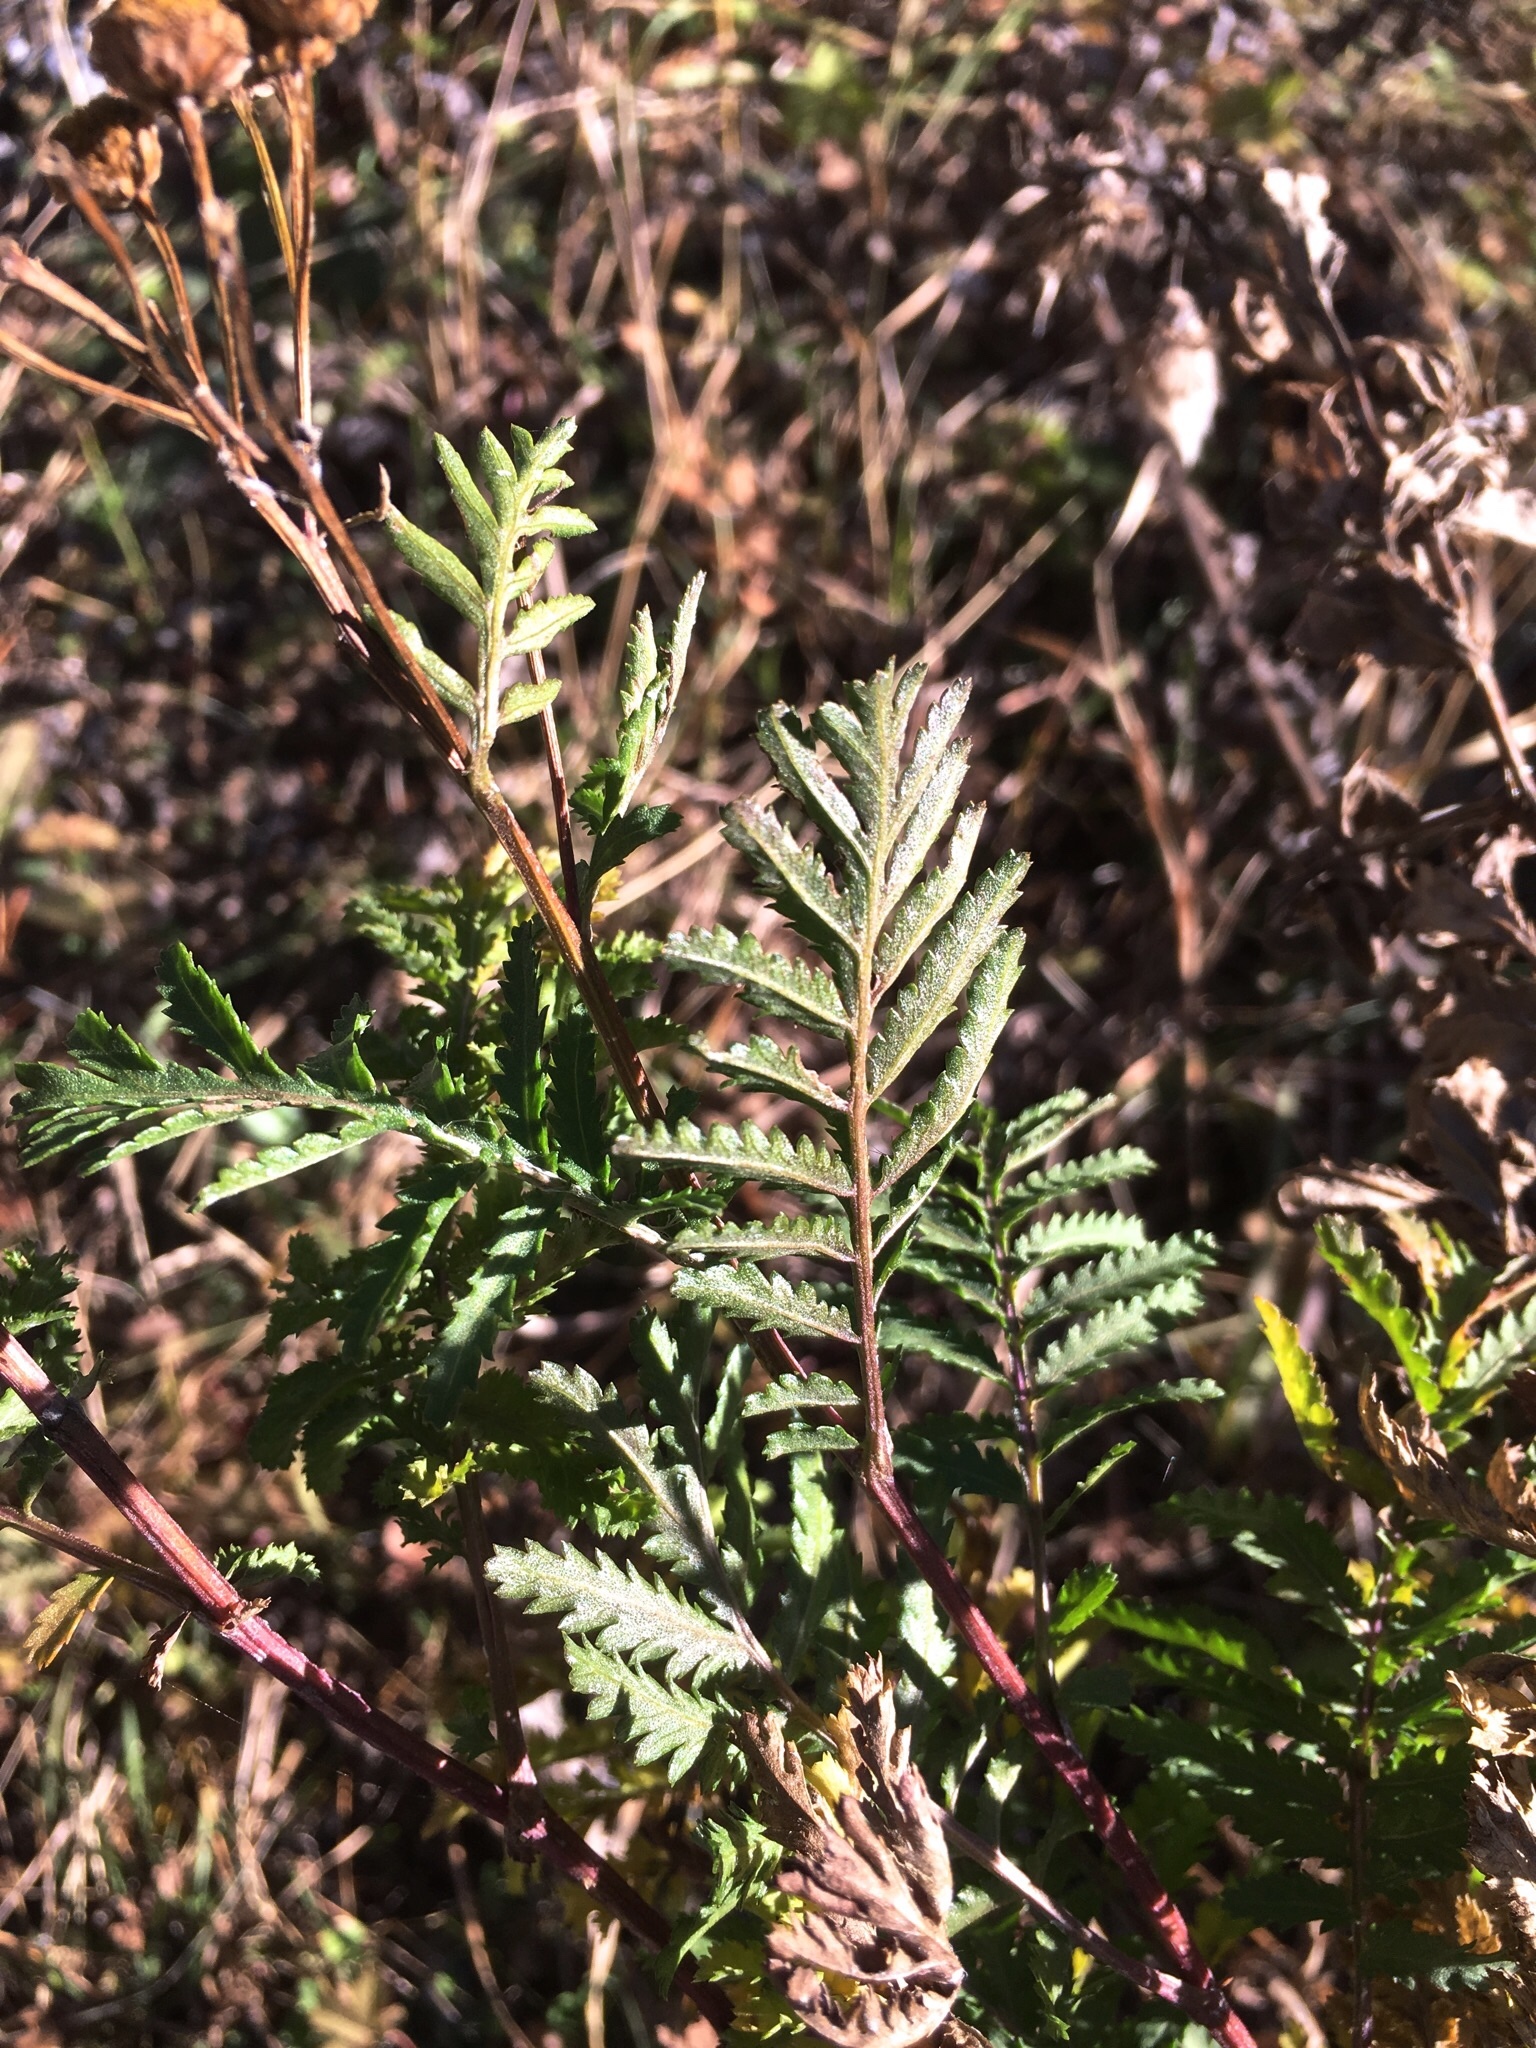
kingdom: Plantae
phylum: Tracheophyta
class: Magnoliopsida
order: Asterales
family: Asteraceae
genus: Tanacetum
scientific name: Tanacetum vulgare
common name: Common tansy
